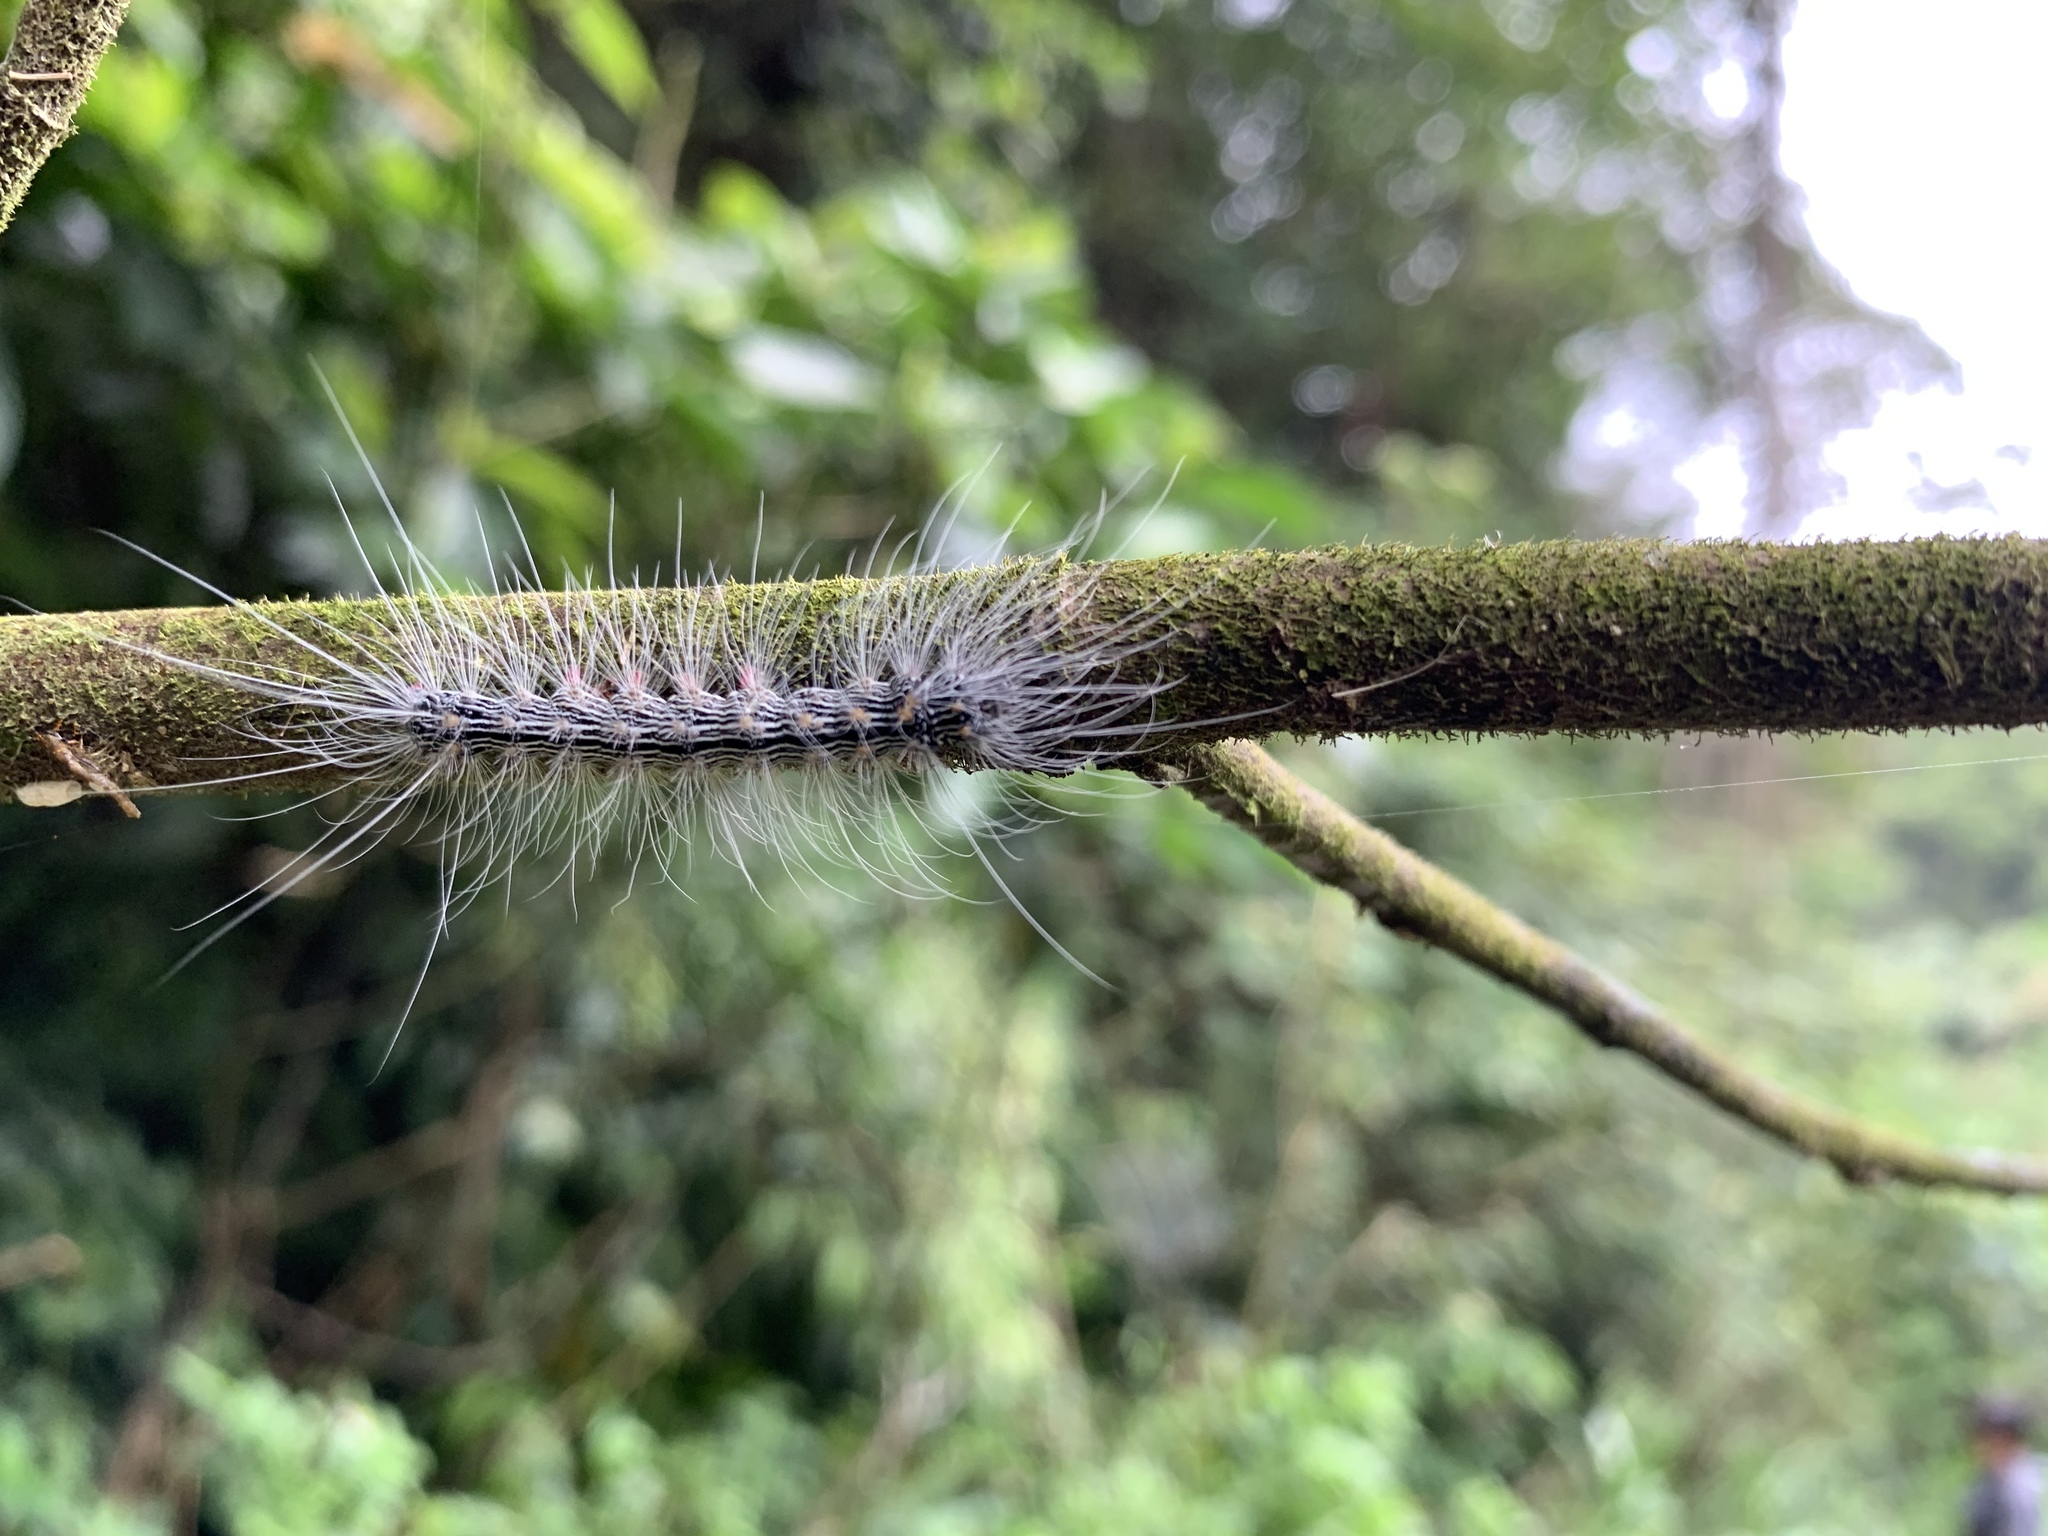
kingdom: Animalia
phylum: Arthropoda
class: Insecta
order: Lepidoptera
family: Erebidae
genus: Chrysaeglia
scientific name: Chrysaeglia magnifica
